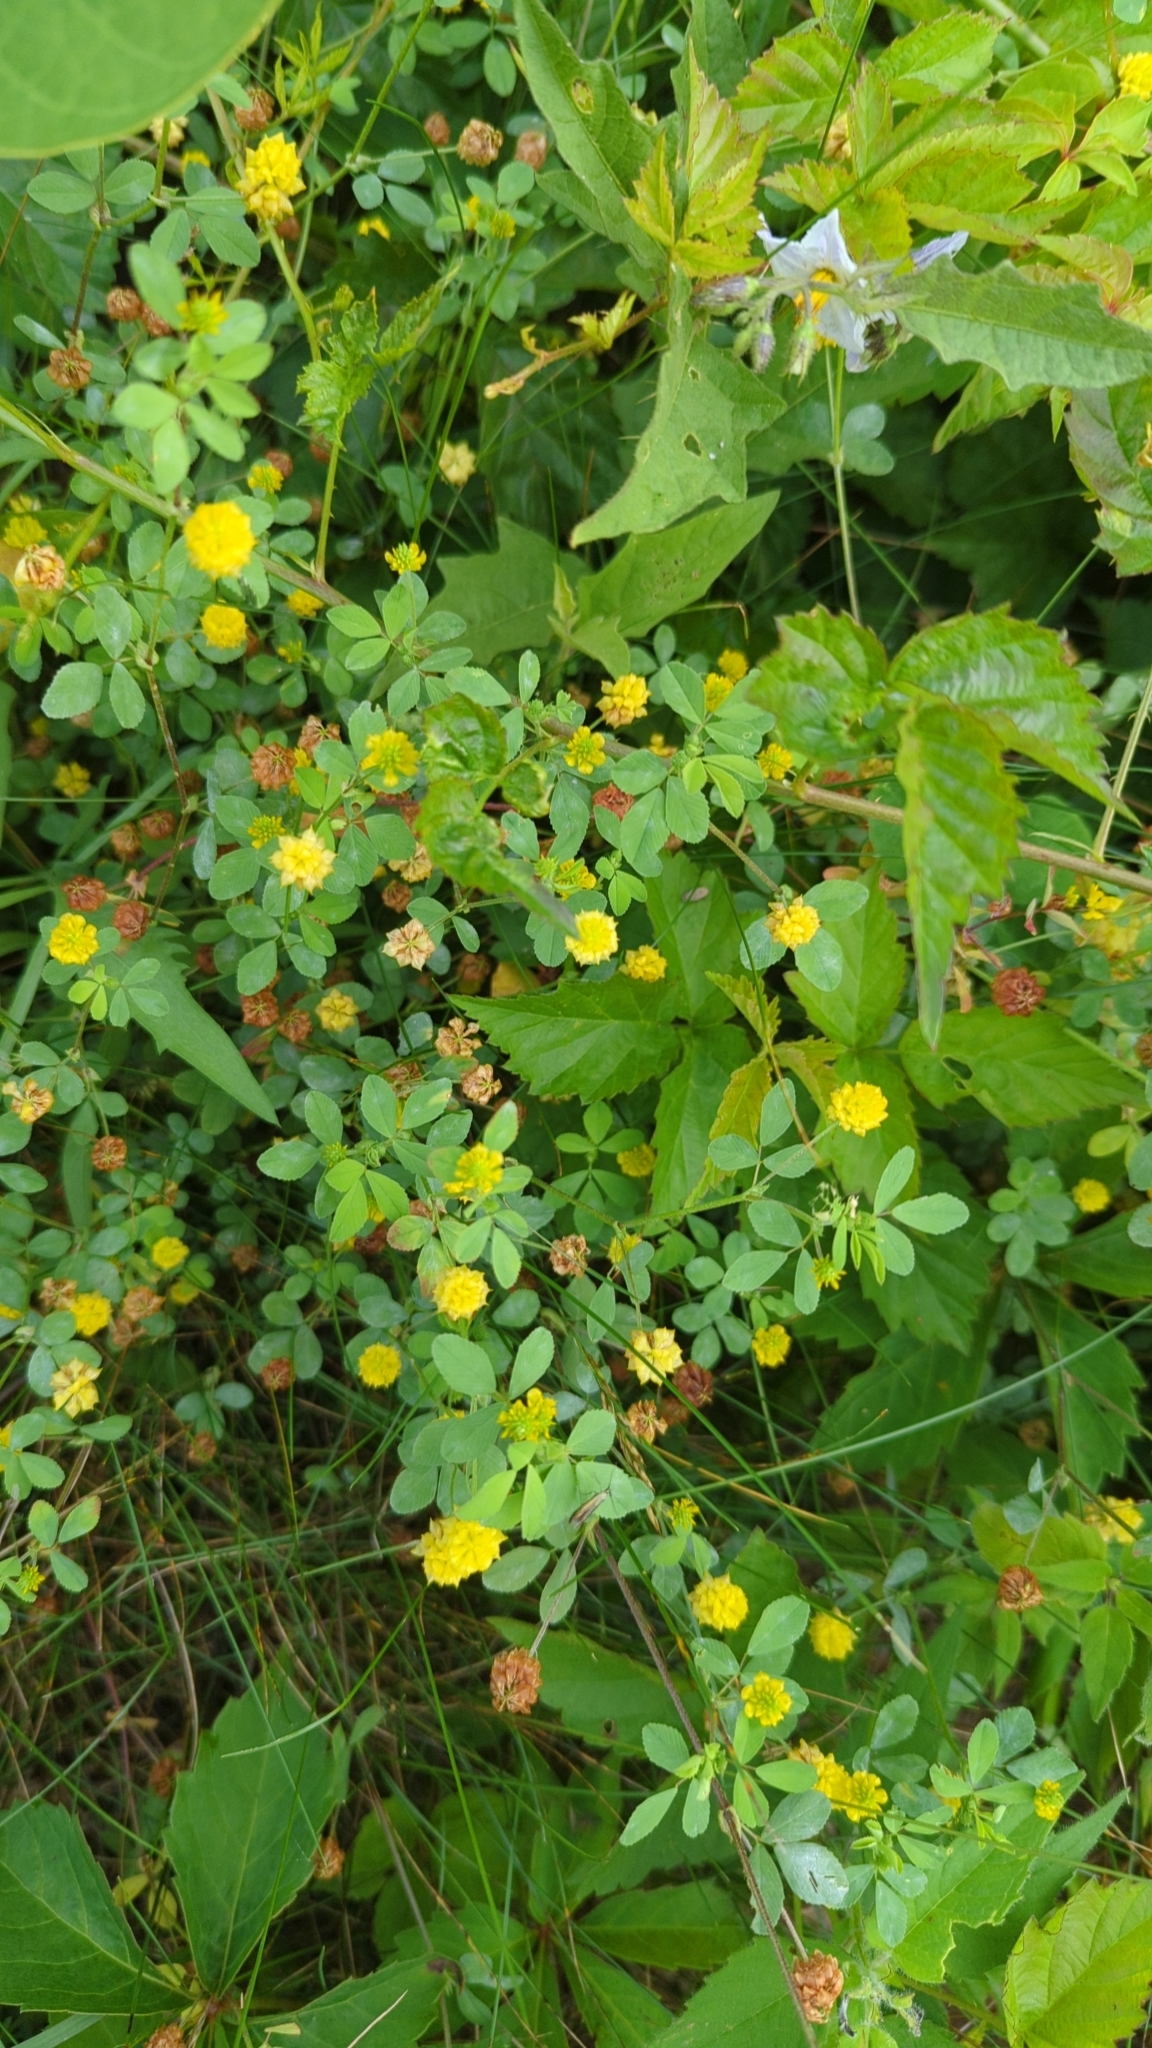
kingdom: Plantae
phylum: Tracheophyta
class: Magnoliopsida
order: Fabales
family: Fabaceae
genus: Trifolium
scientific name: Trifolium campestre
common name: Field clover
